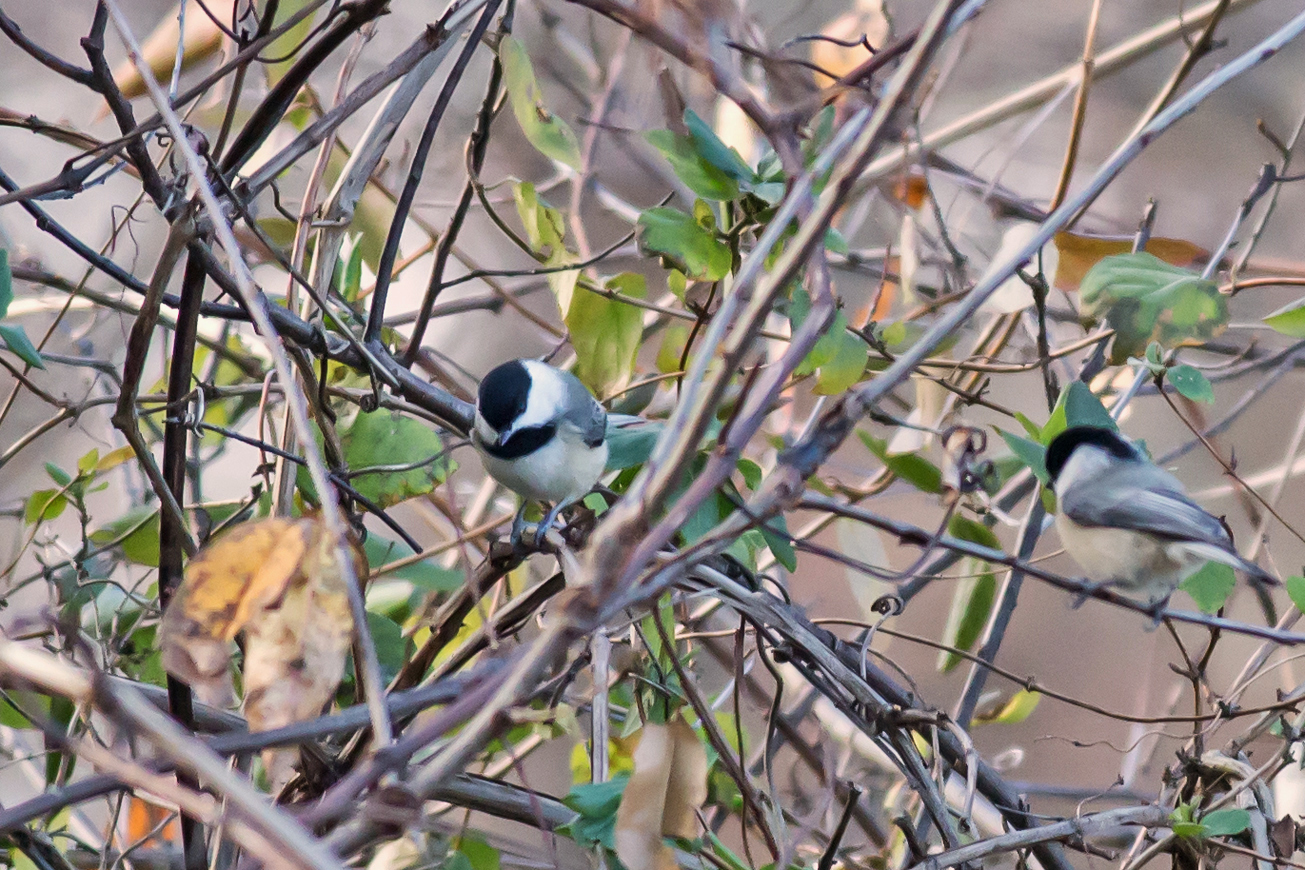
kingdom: Animalia
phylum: Chordata
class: Aves
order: Passeriformes
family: Paridae
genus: Poecile
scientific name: Poecile carolinensis
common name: Carolina chickadee
